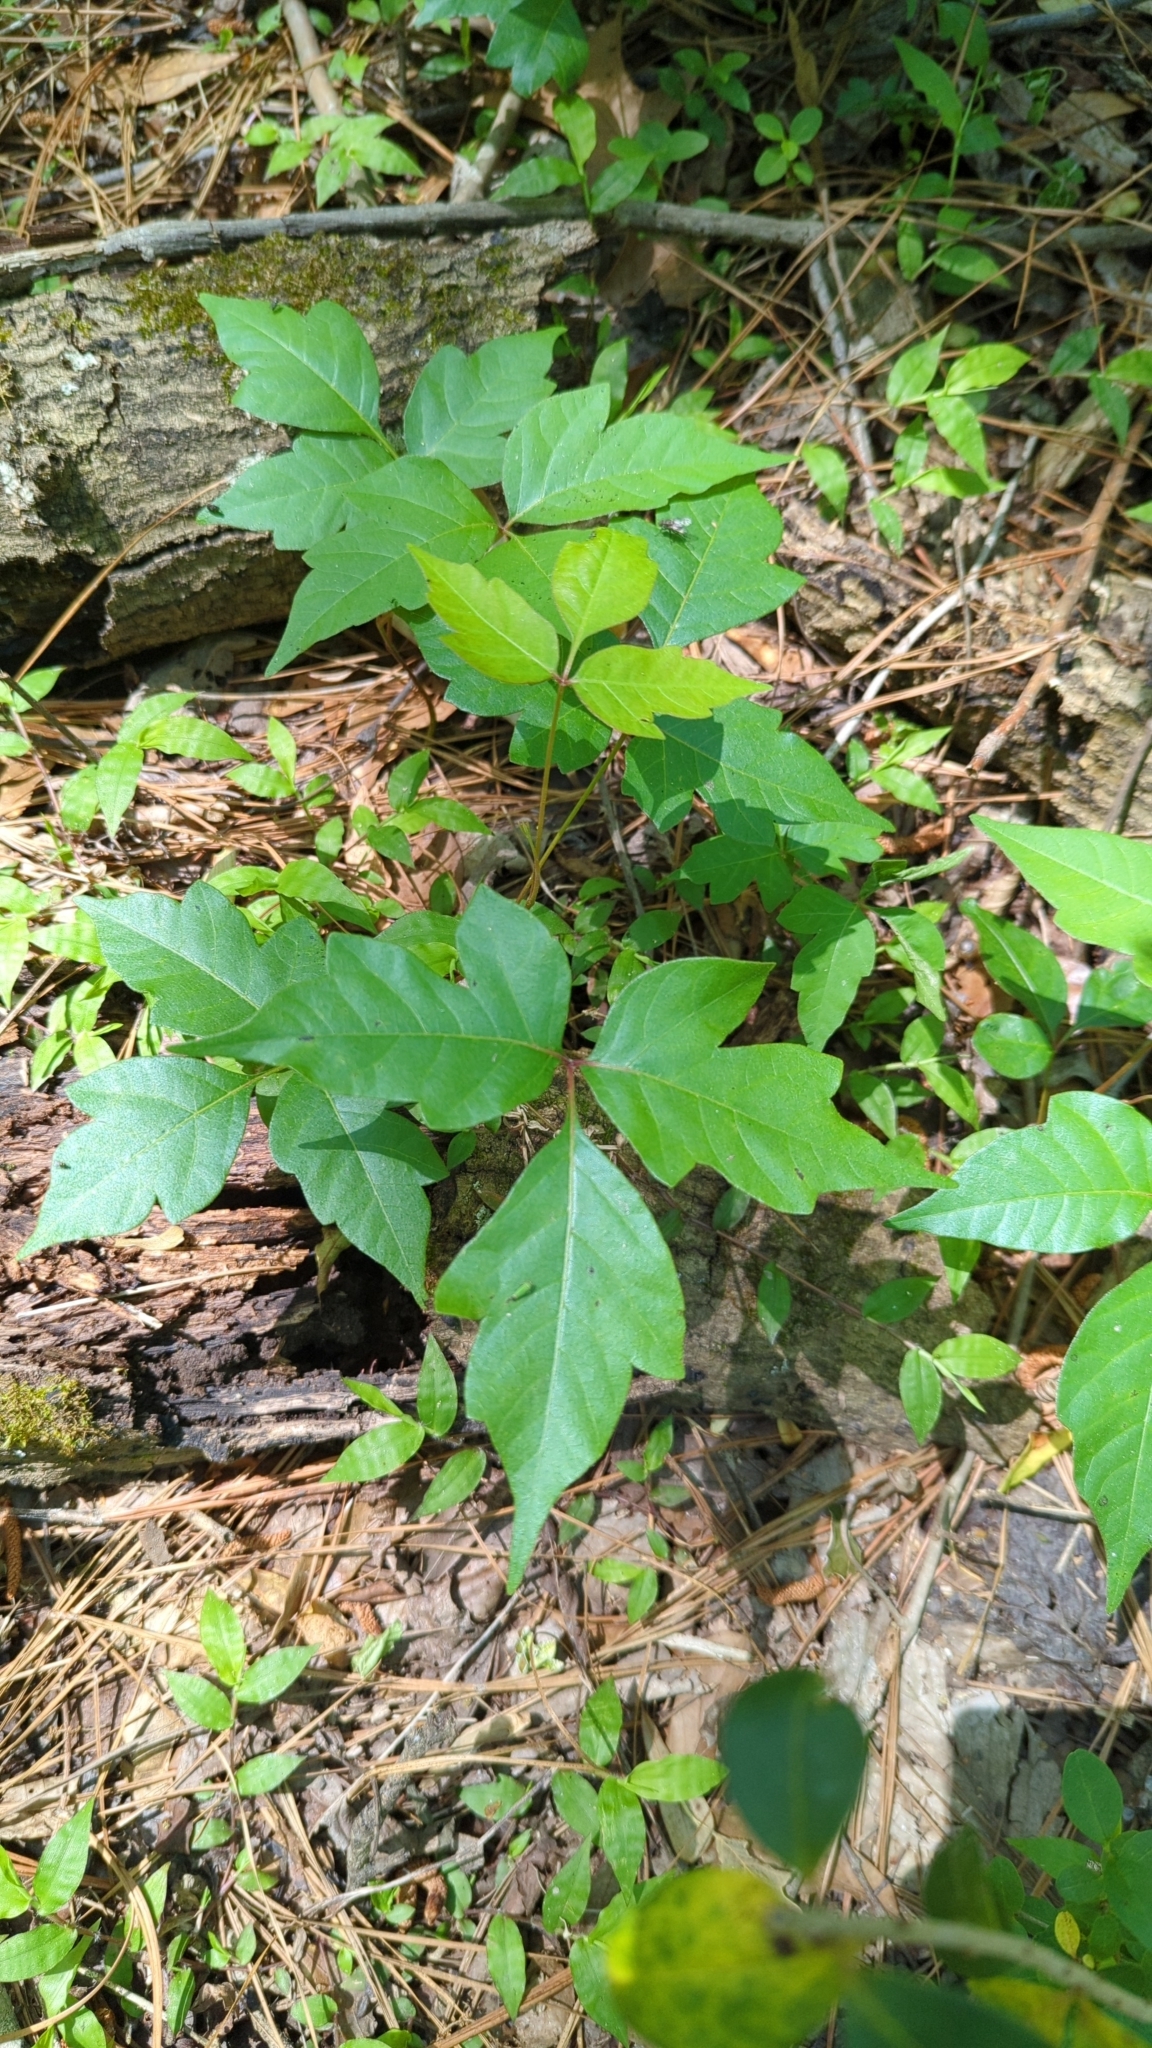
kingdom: Plantae
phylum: Tracheophyta
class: Magnoliopsida
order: Sapindales
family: Anacardiaceae
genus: Toxicodendron
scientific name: Toxicodendron radicans
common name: Poison ivy
